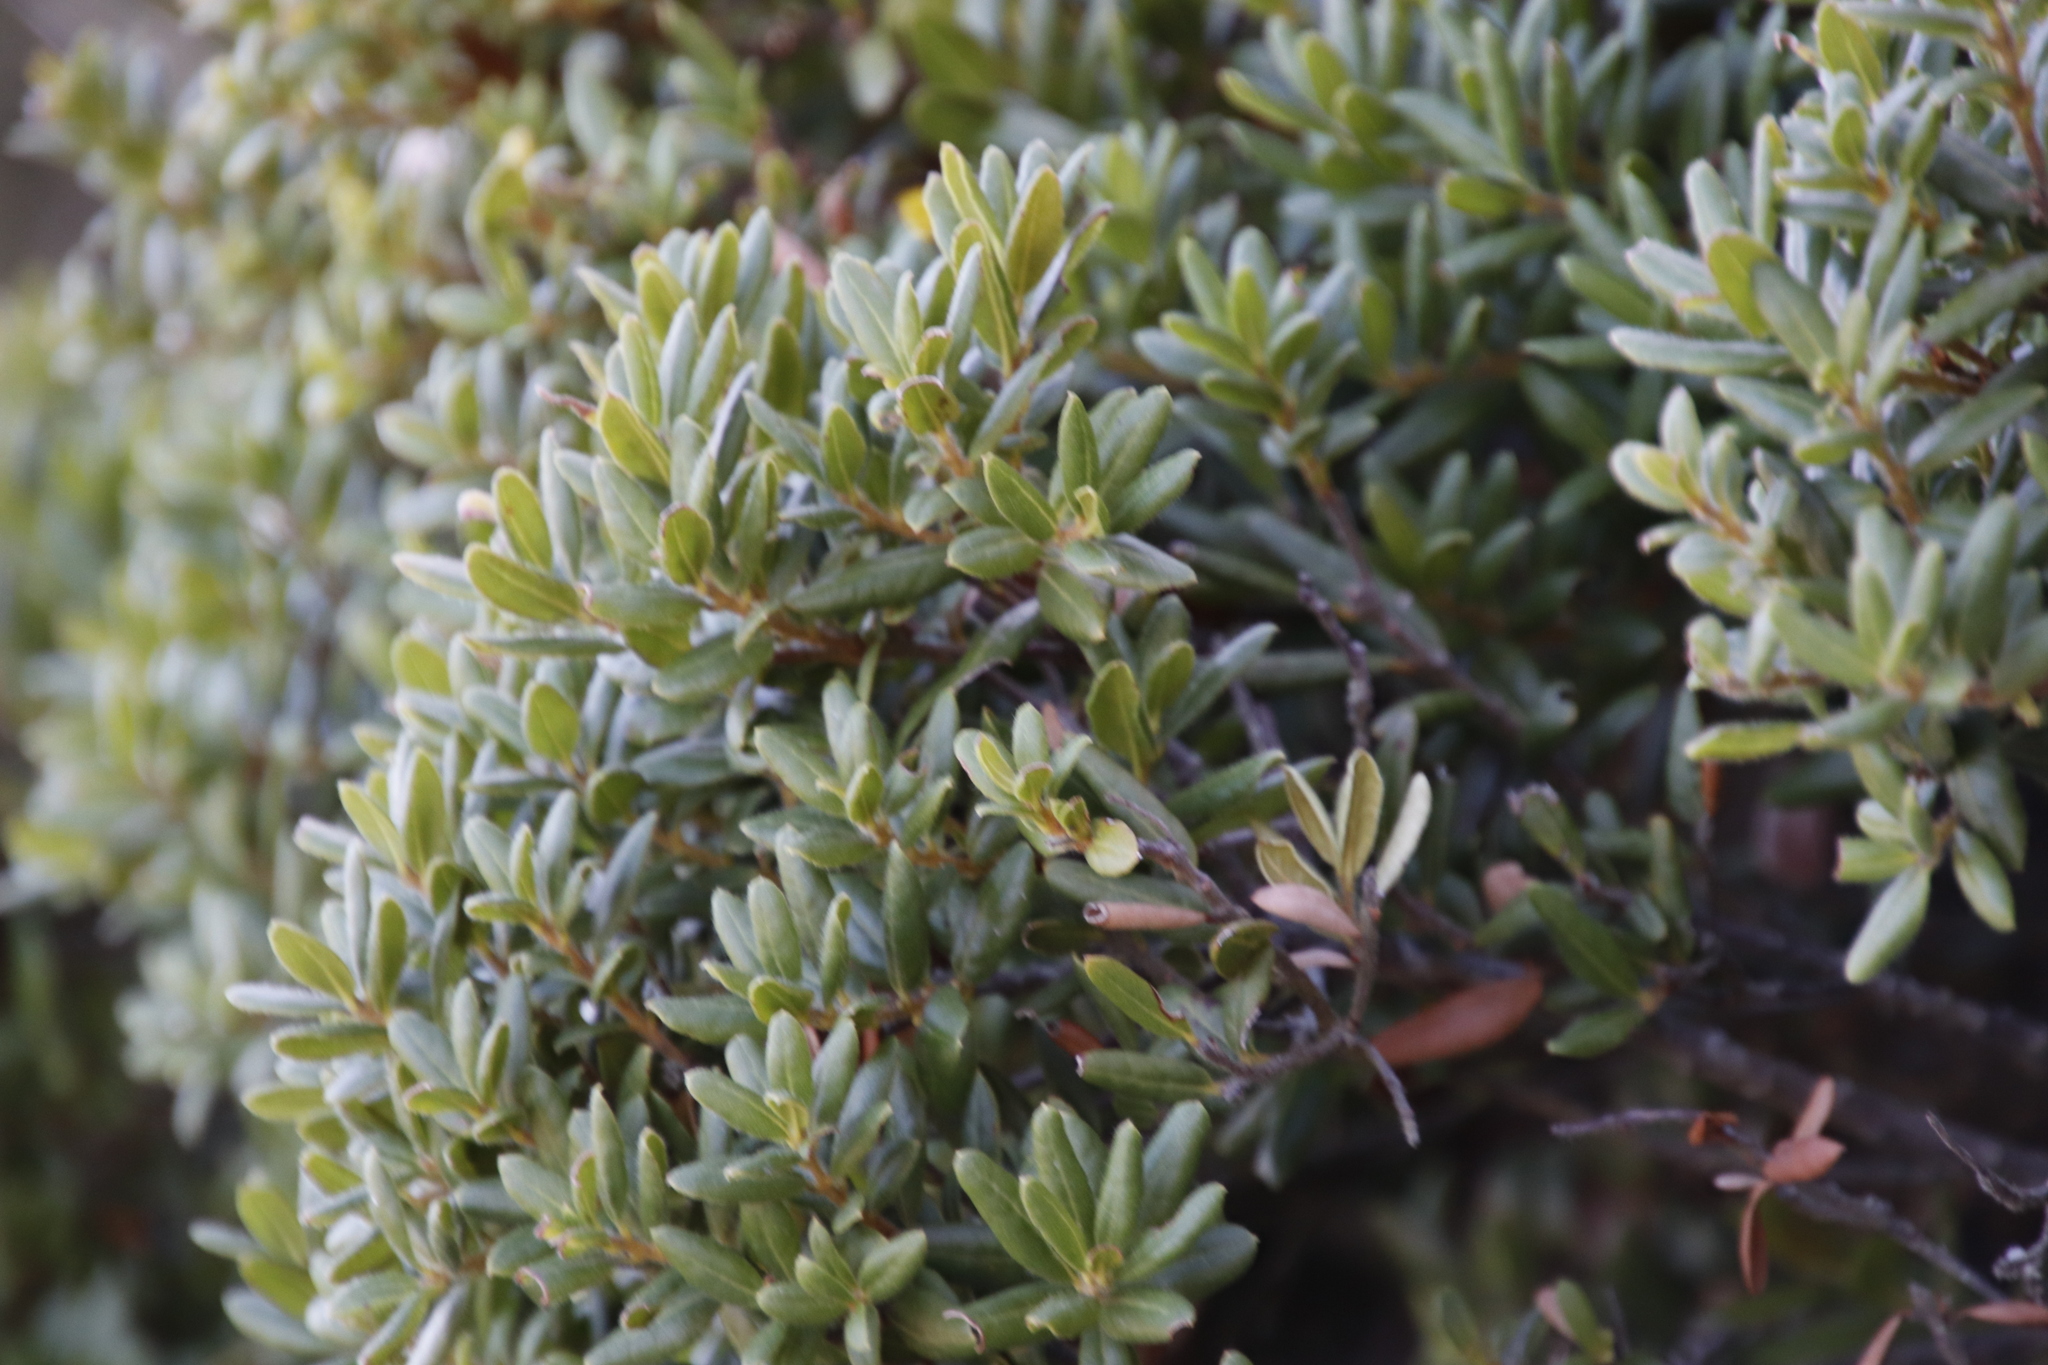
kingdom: Plantae
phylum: Tracheophyta
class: Magnoliopsida
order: Fagales
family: Myricaceae
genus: Morella
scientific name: Morella kraussiana
